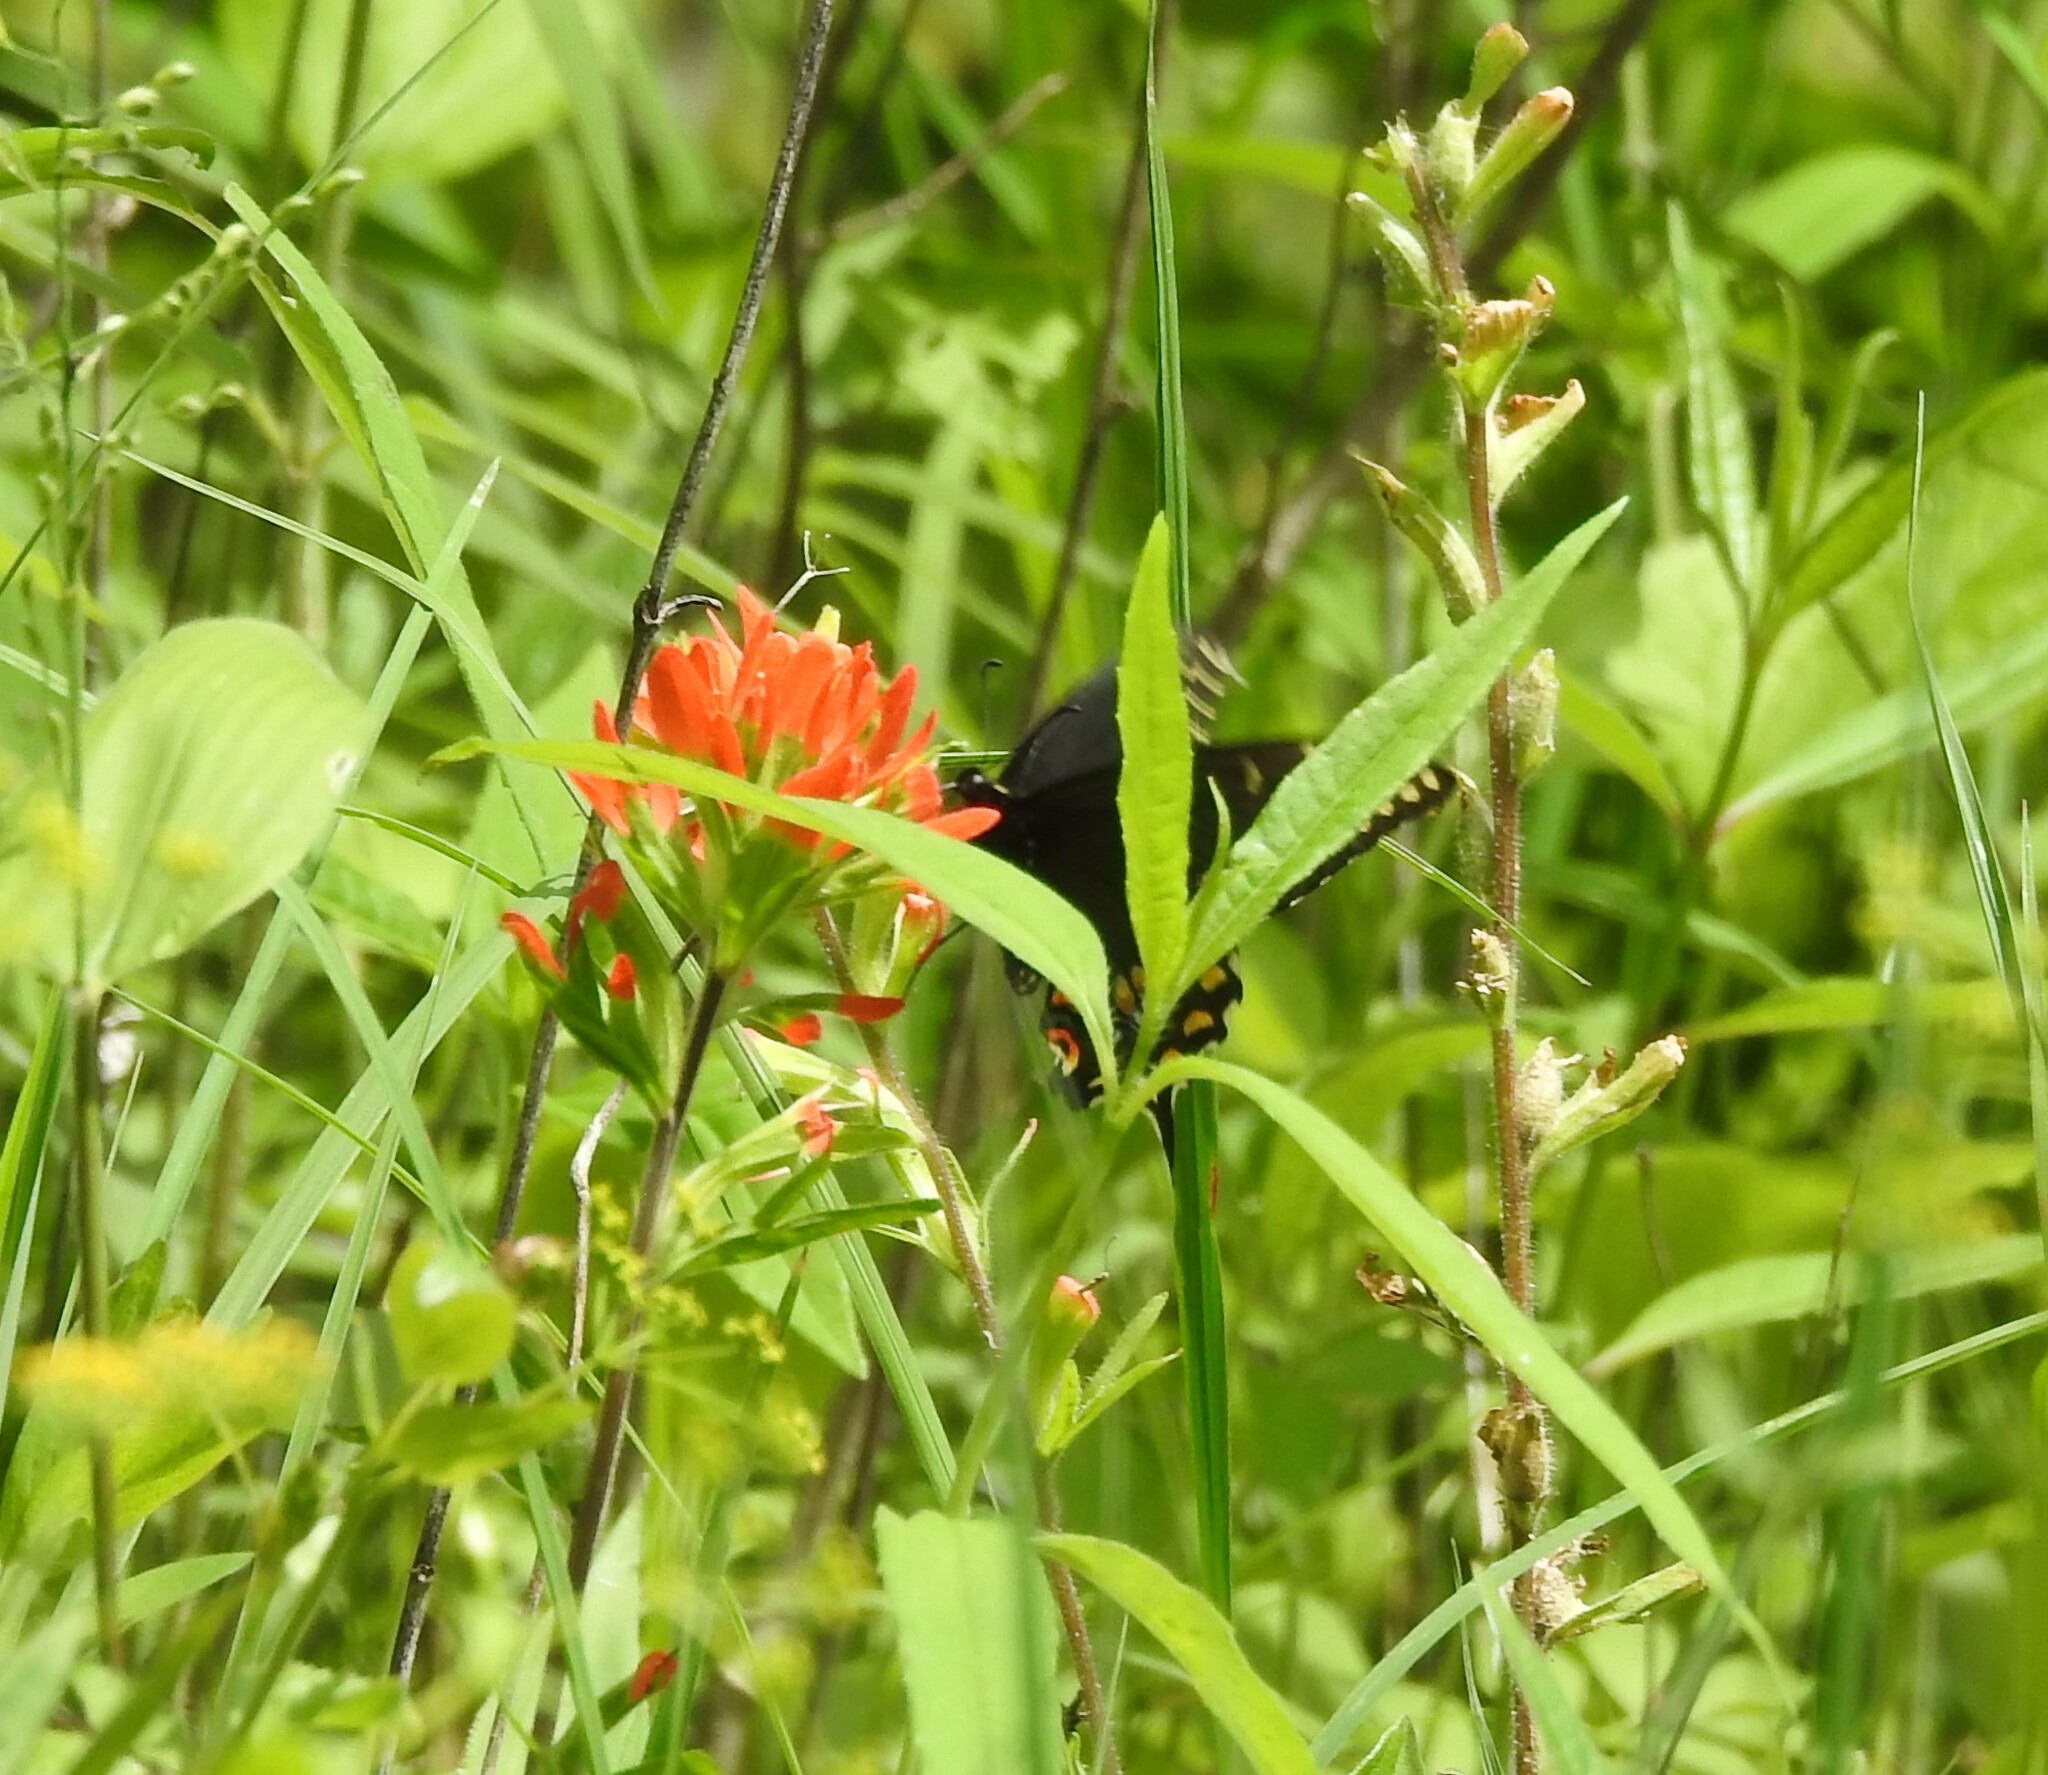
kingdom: Animalia
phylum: Arthropoda
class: Insecta
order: Lepidoptera
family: Papilionidae
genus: Papilio
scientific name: Papilio polyxenes
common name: Black swallowtail
